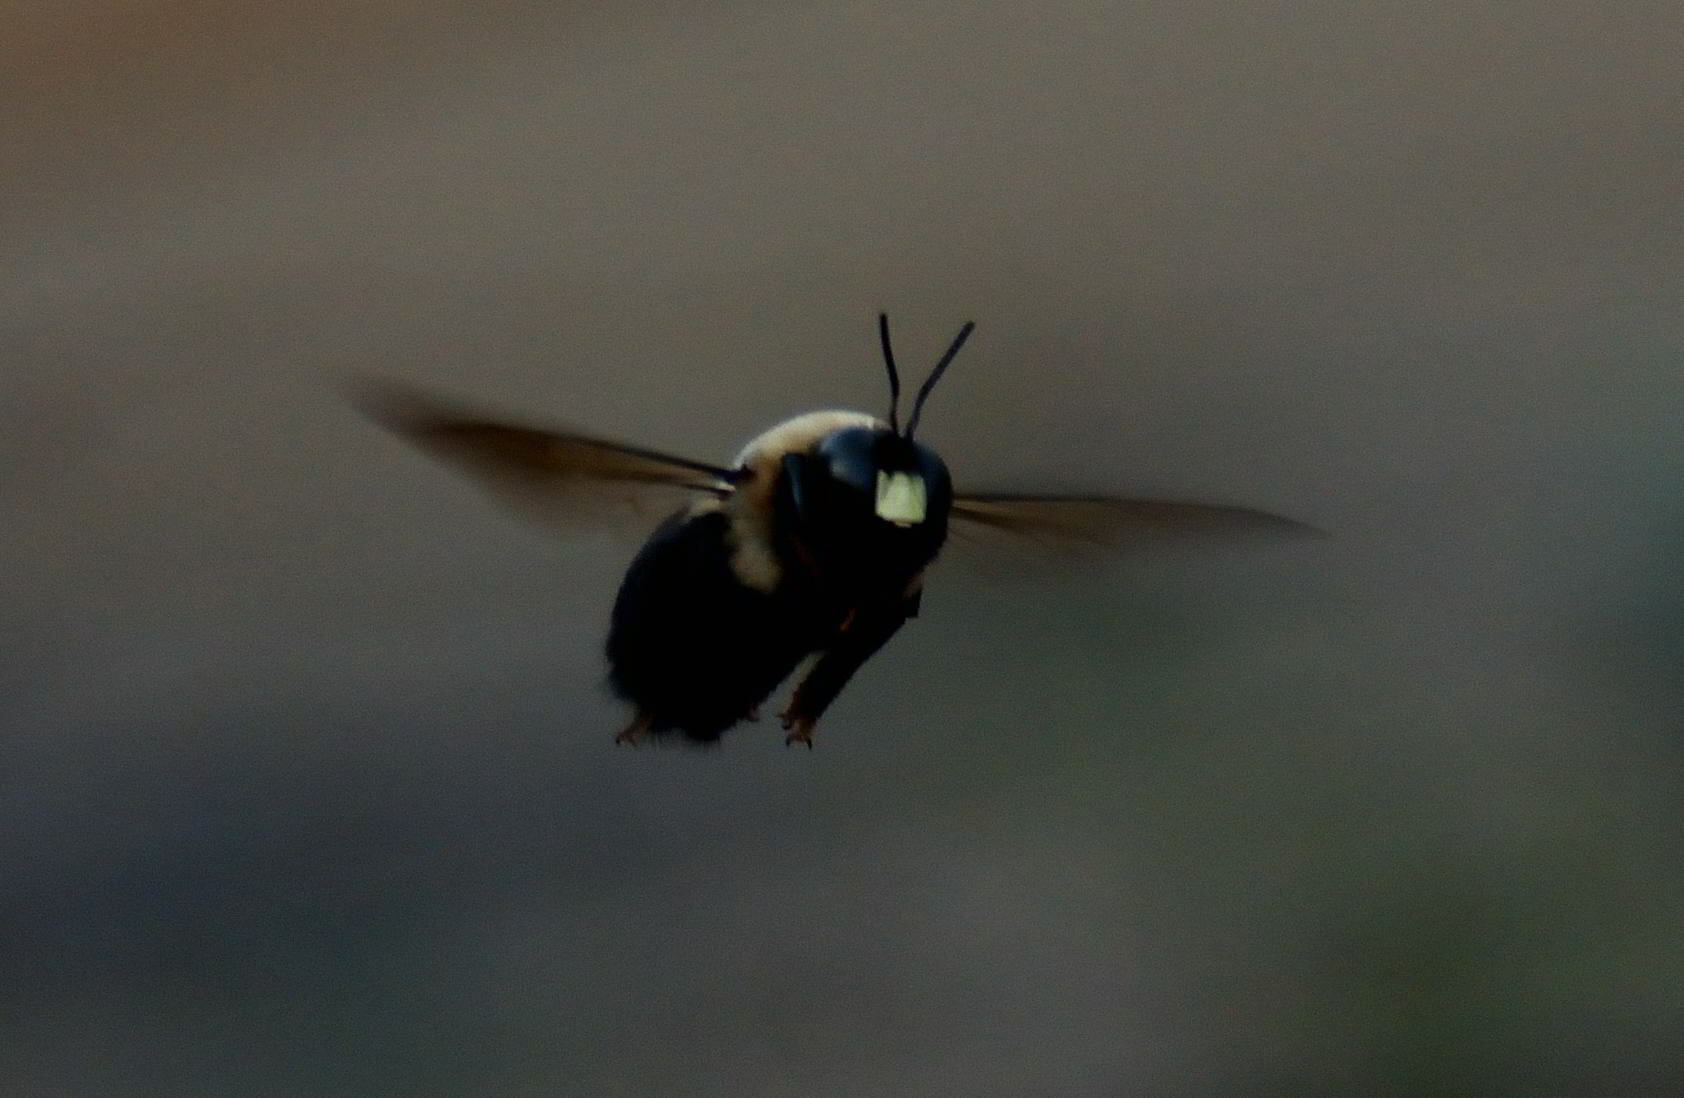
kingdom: Animalia
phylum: Arthropoda
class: Insecta
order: Hymenoptera
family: Apidae
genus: Xylocopa
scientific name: Xylocopa virginica
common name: Carpenter bee
